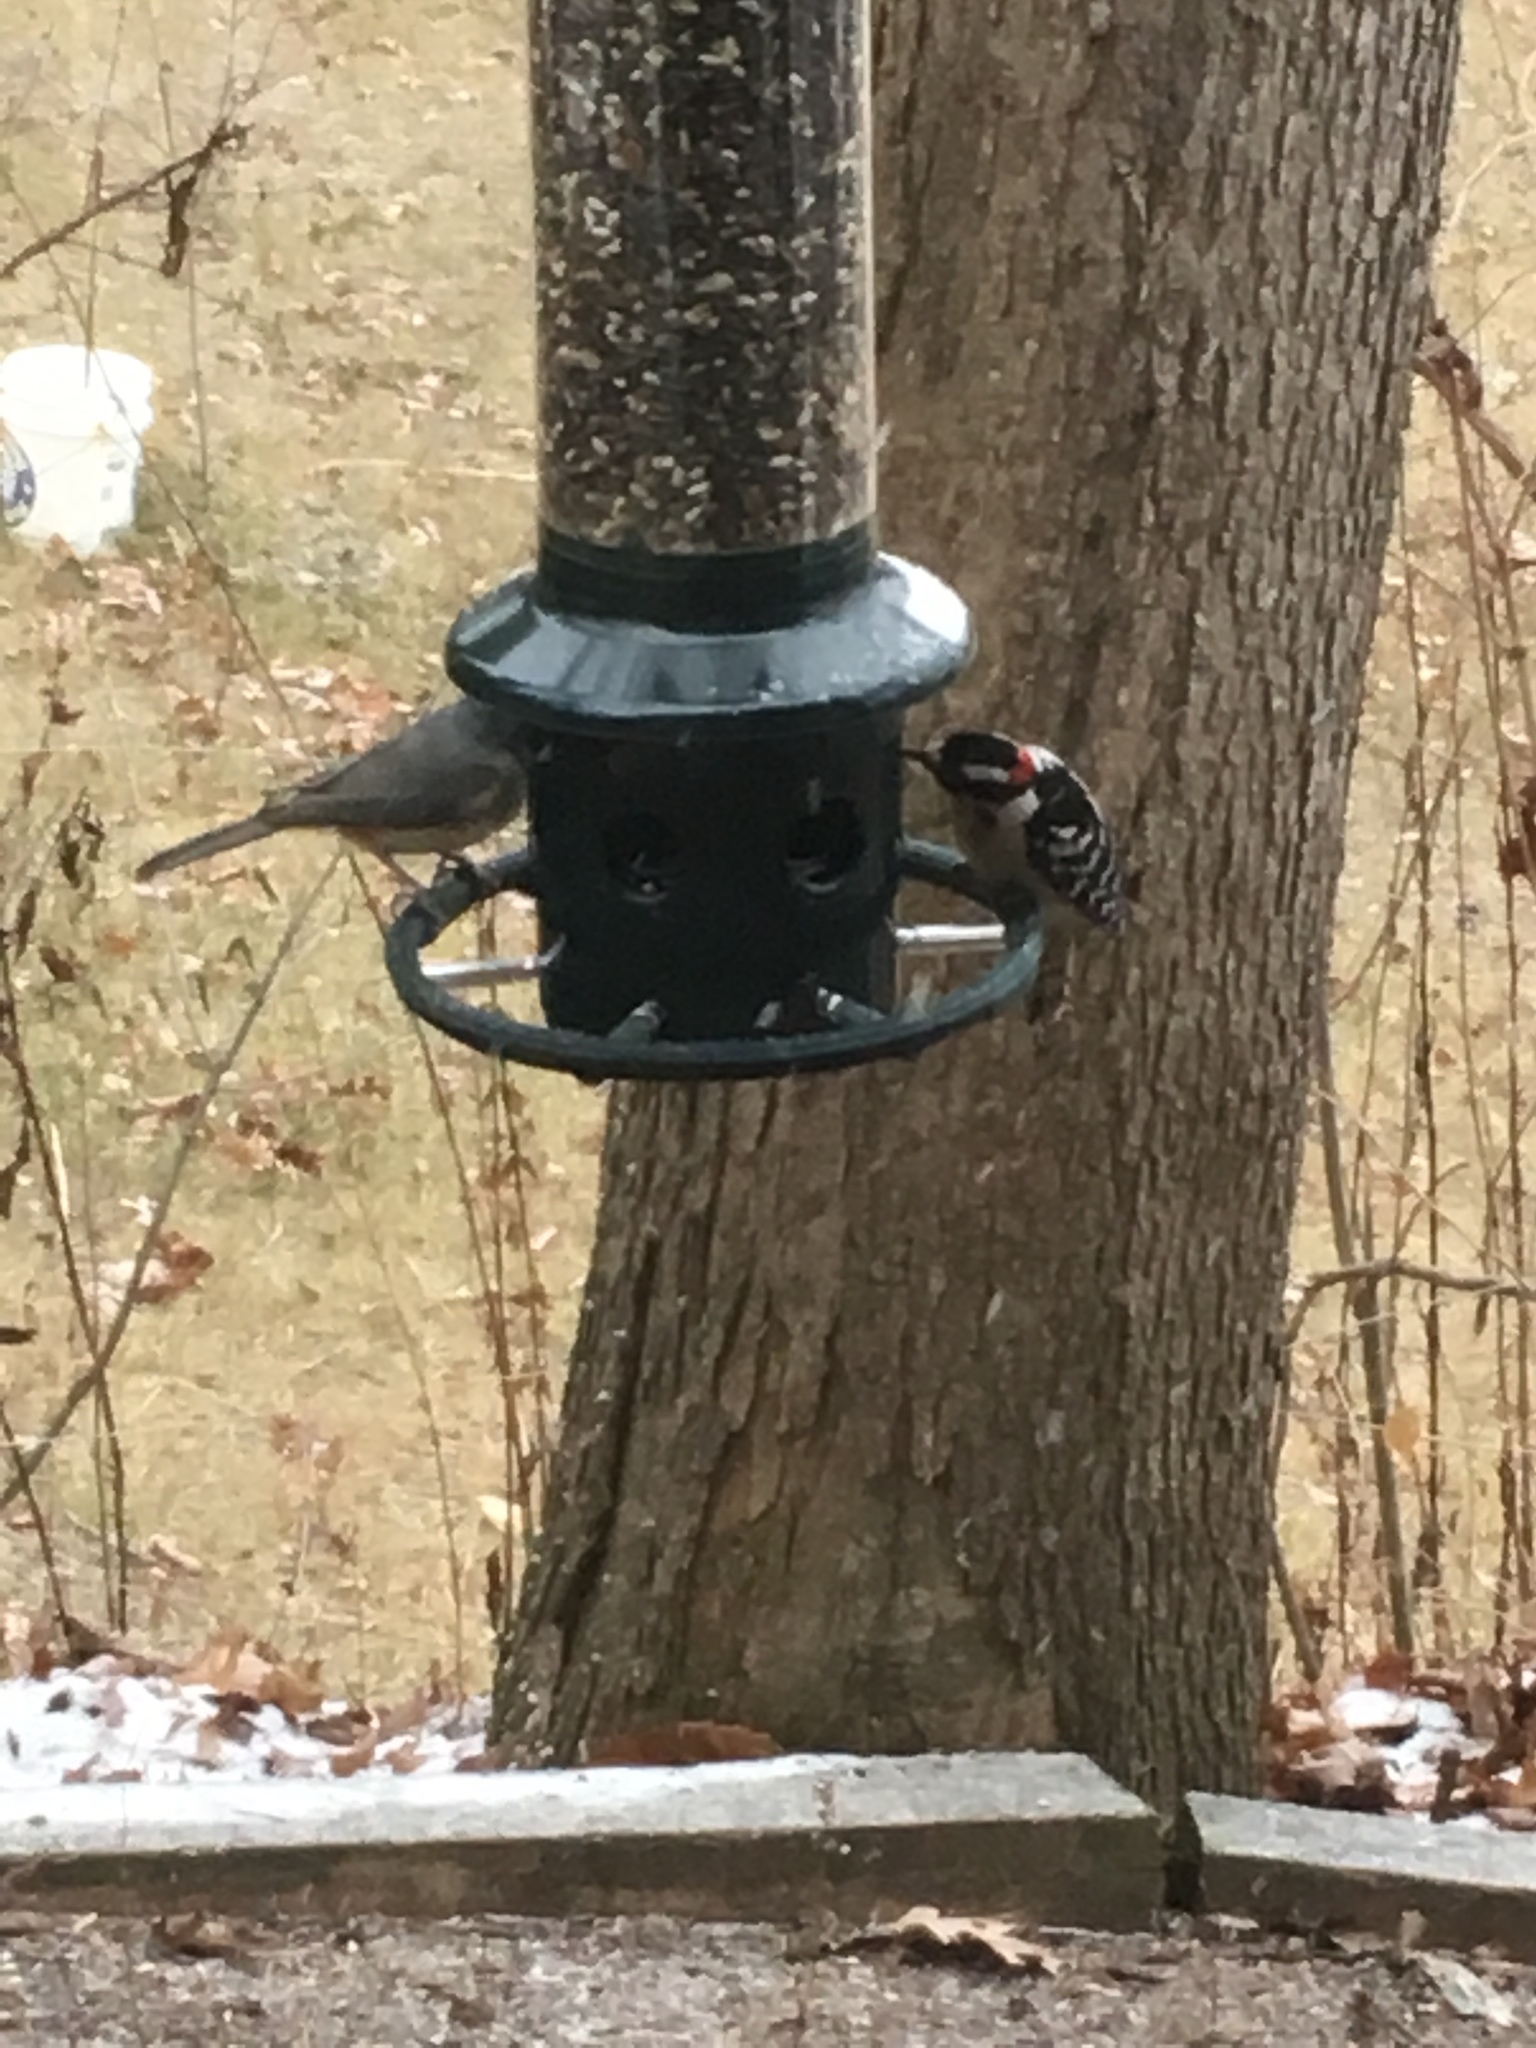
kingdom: Animalia
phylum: Chordata
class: Aves
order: Piciformes
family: Picidae
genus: Dryobates
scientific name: Dryobates pubescens
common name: Downy woodpecker
